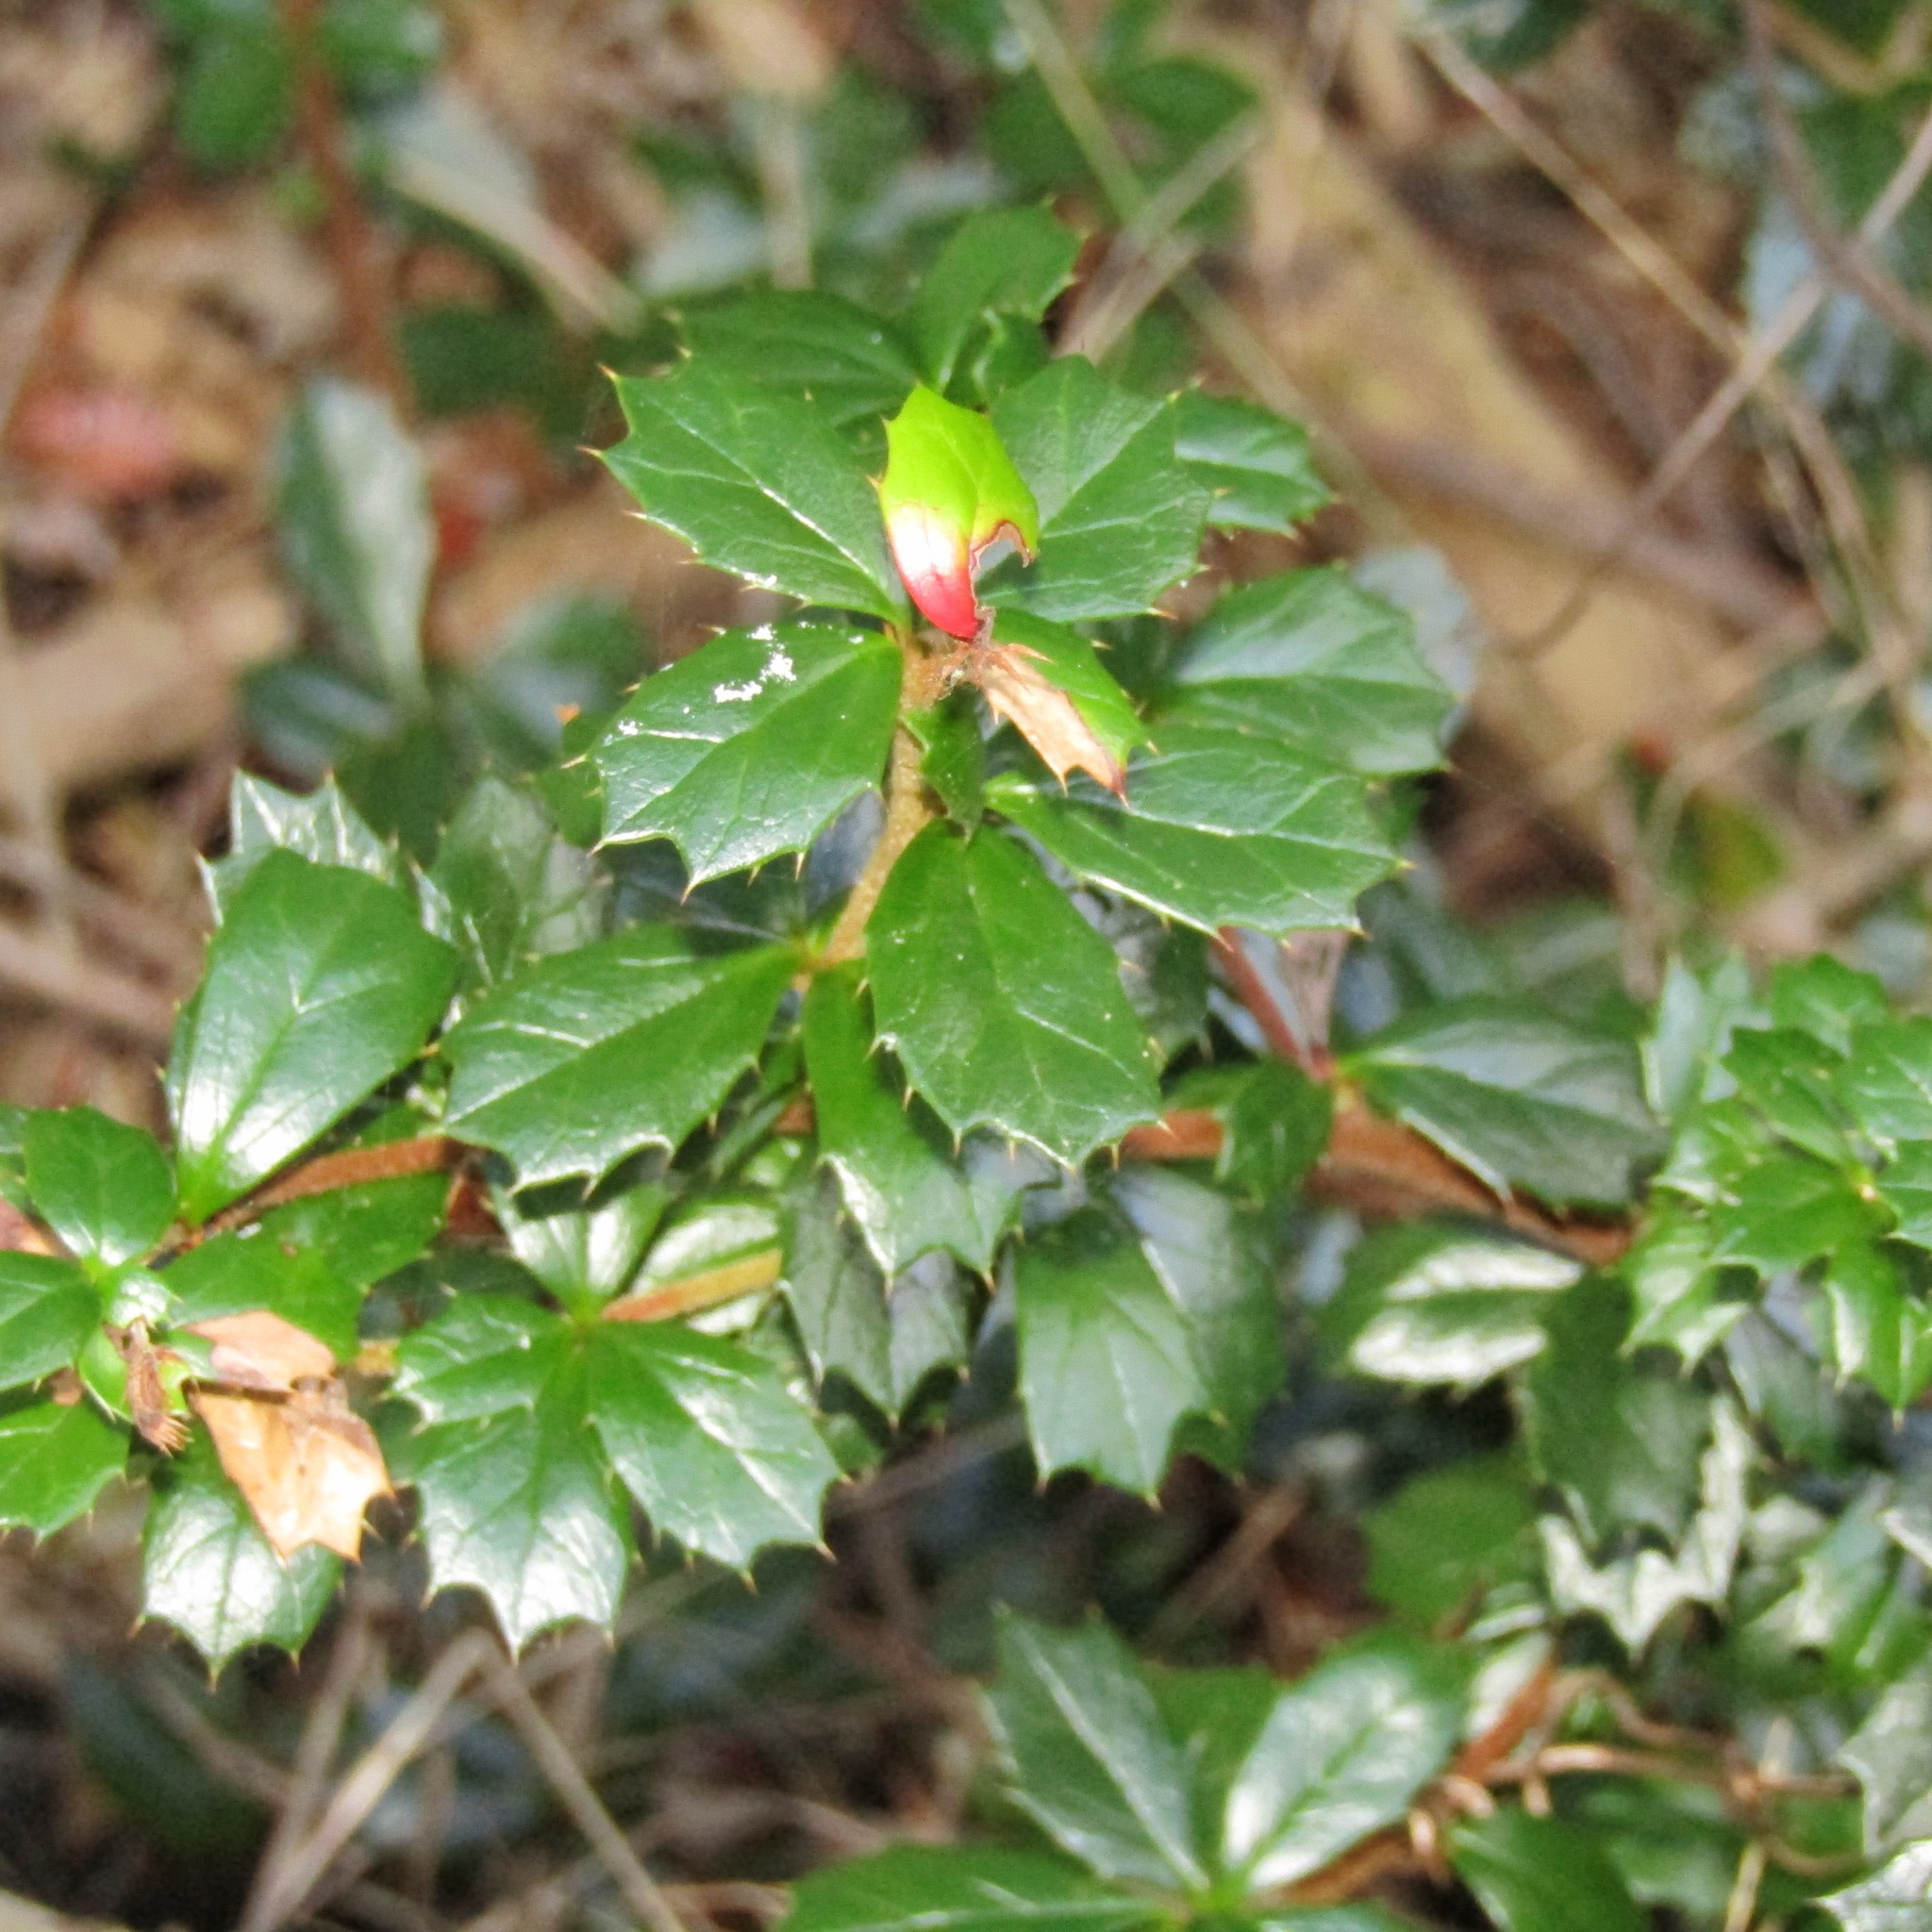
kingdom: Plantae
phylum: Tracheophyta
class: Magnoliopsida
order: Ranunculales
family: Berberidaceae
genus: Berberis
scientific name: Berberis darwinii
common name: Darwin's barberry
